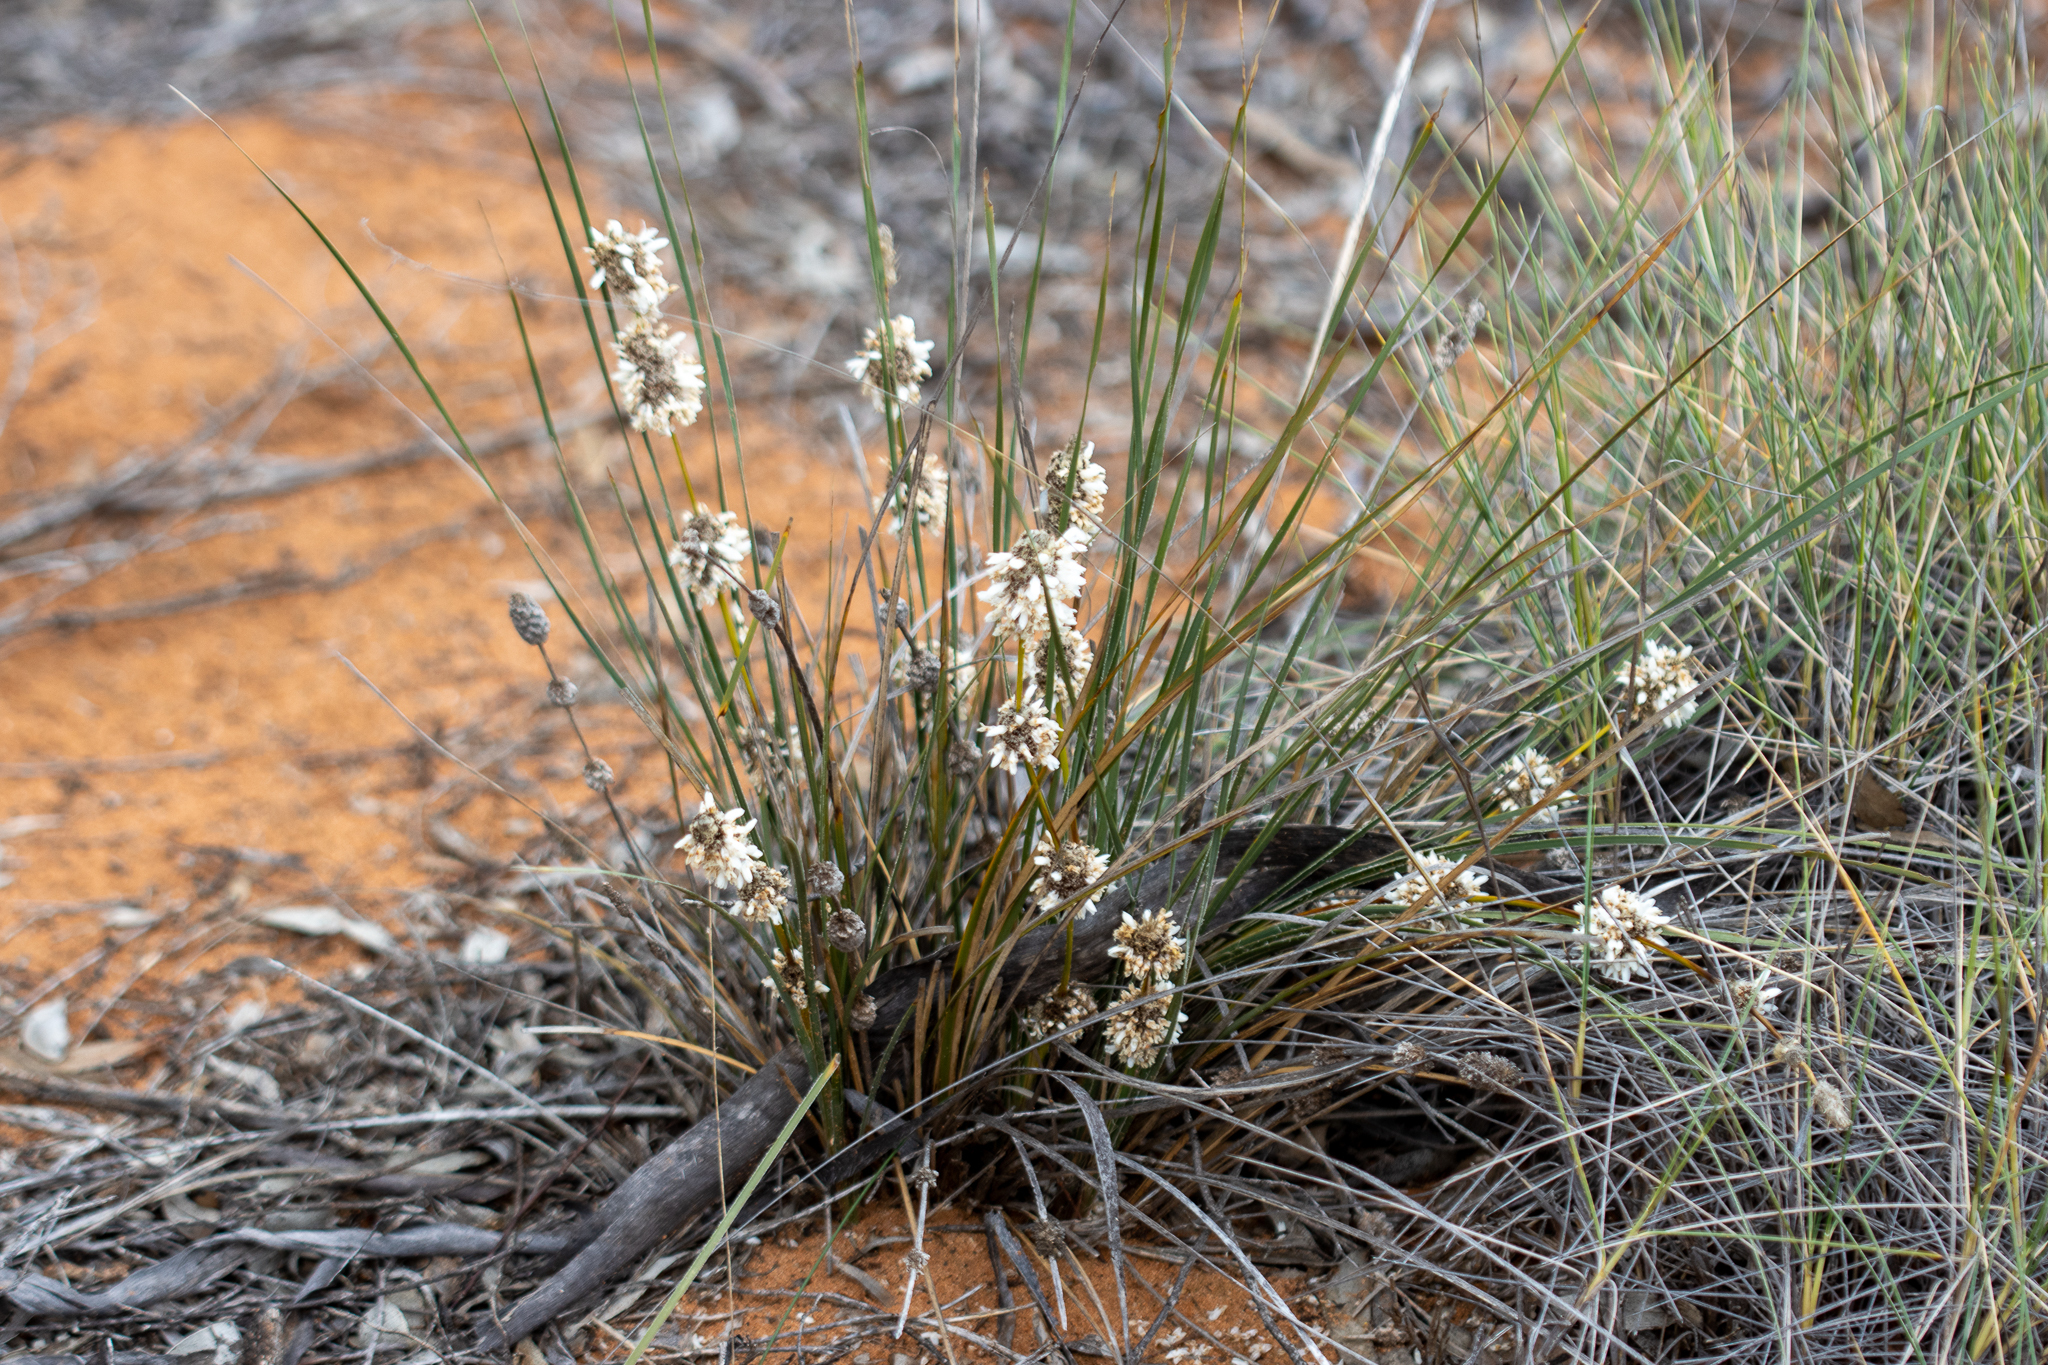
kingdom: Plantae
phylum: Tracheophyta
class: Liliopsida
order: Asparagales
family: Asparagaceae
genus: Lomandra
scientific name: Lomandra leucocephala
